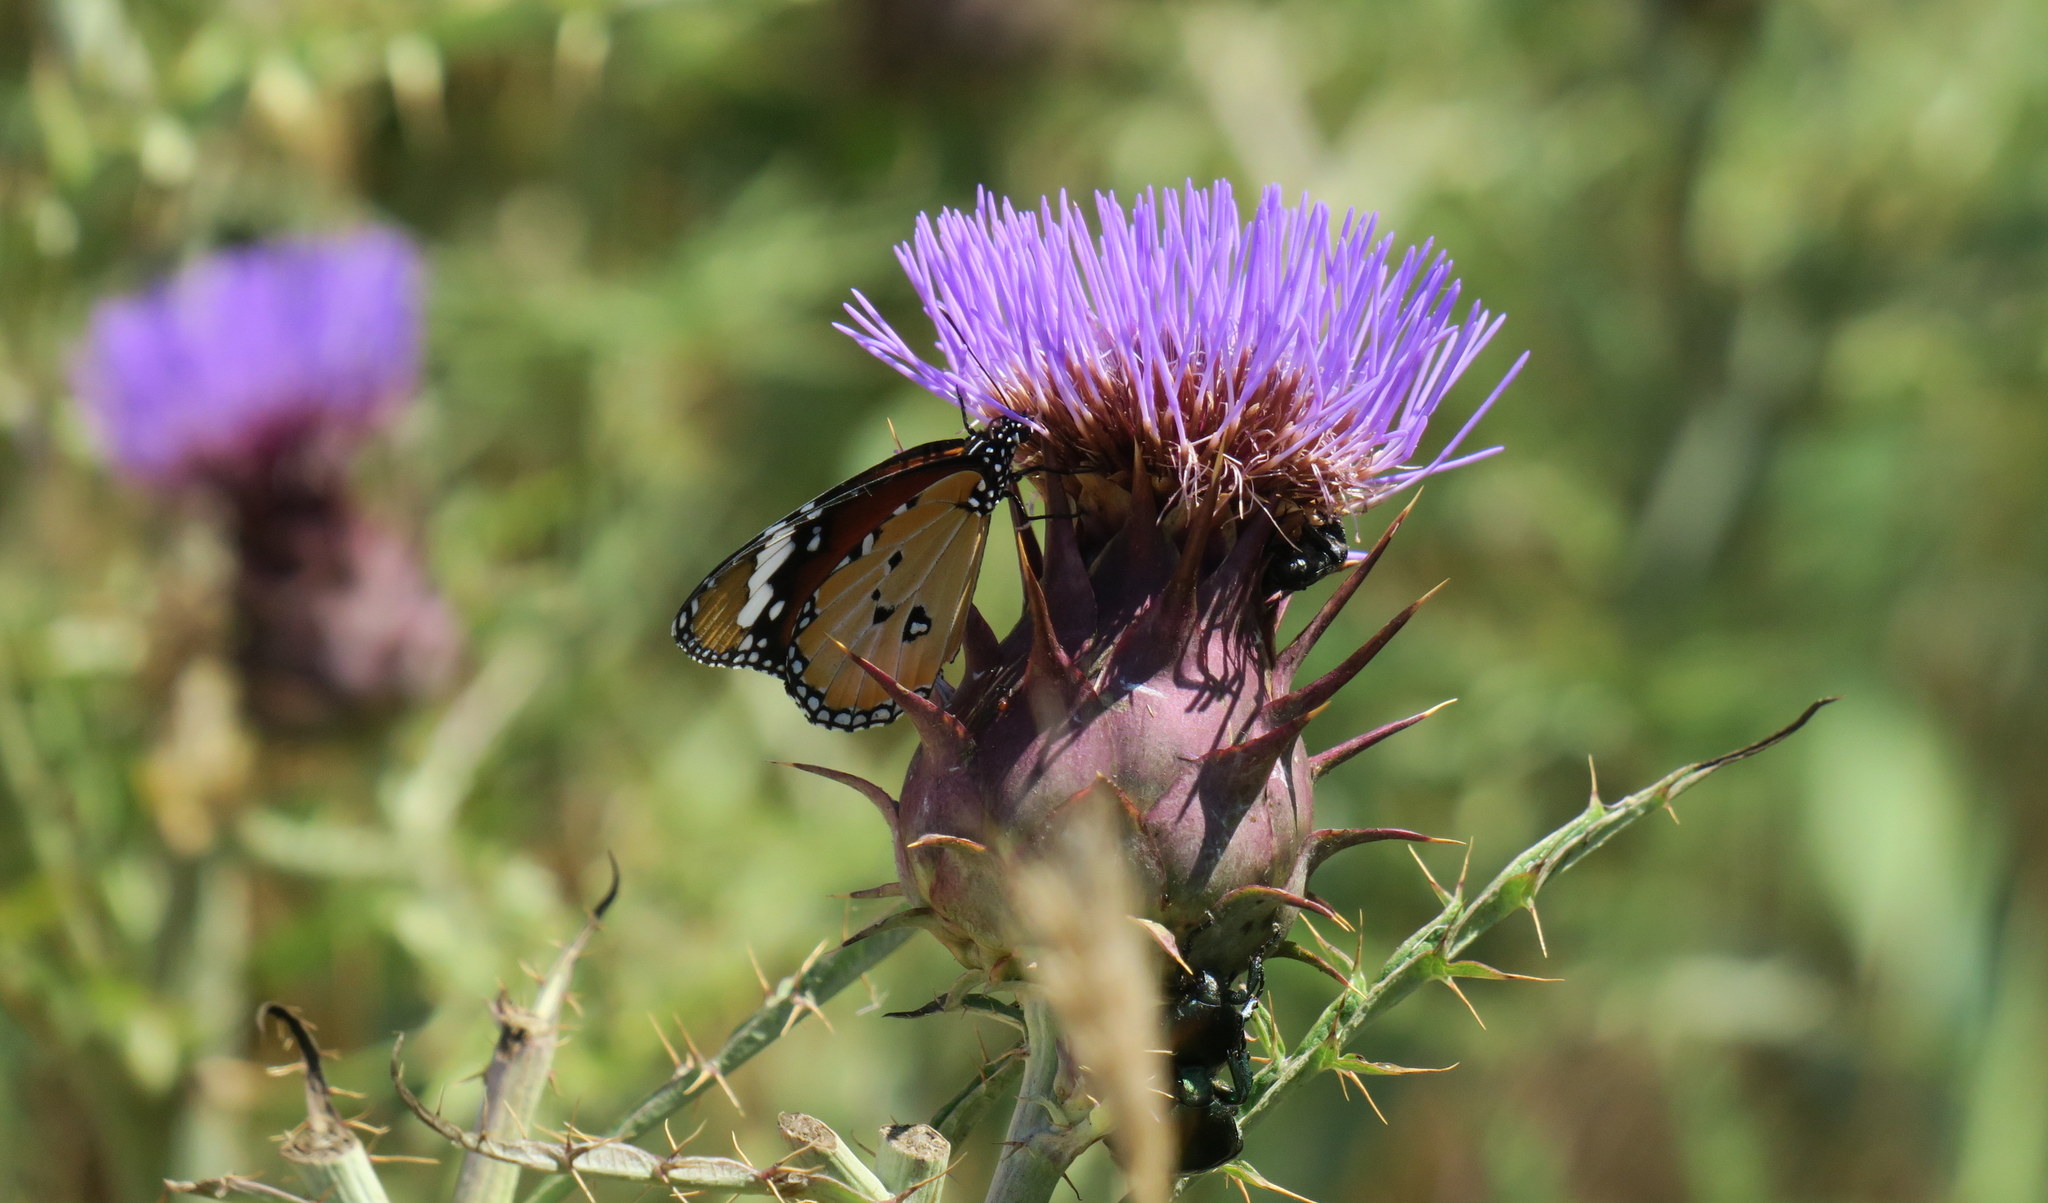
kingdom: Animalia
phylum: Arthropoda
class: Insecta
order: Lepidoptera
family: Nymphalidae
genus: Danaus
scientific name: Danaus chrysippus
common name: Plain tiger
